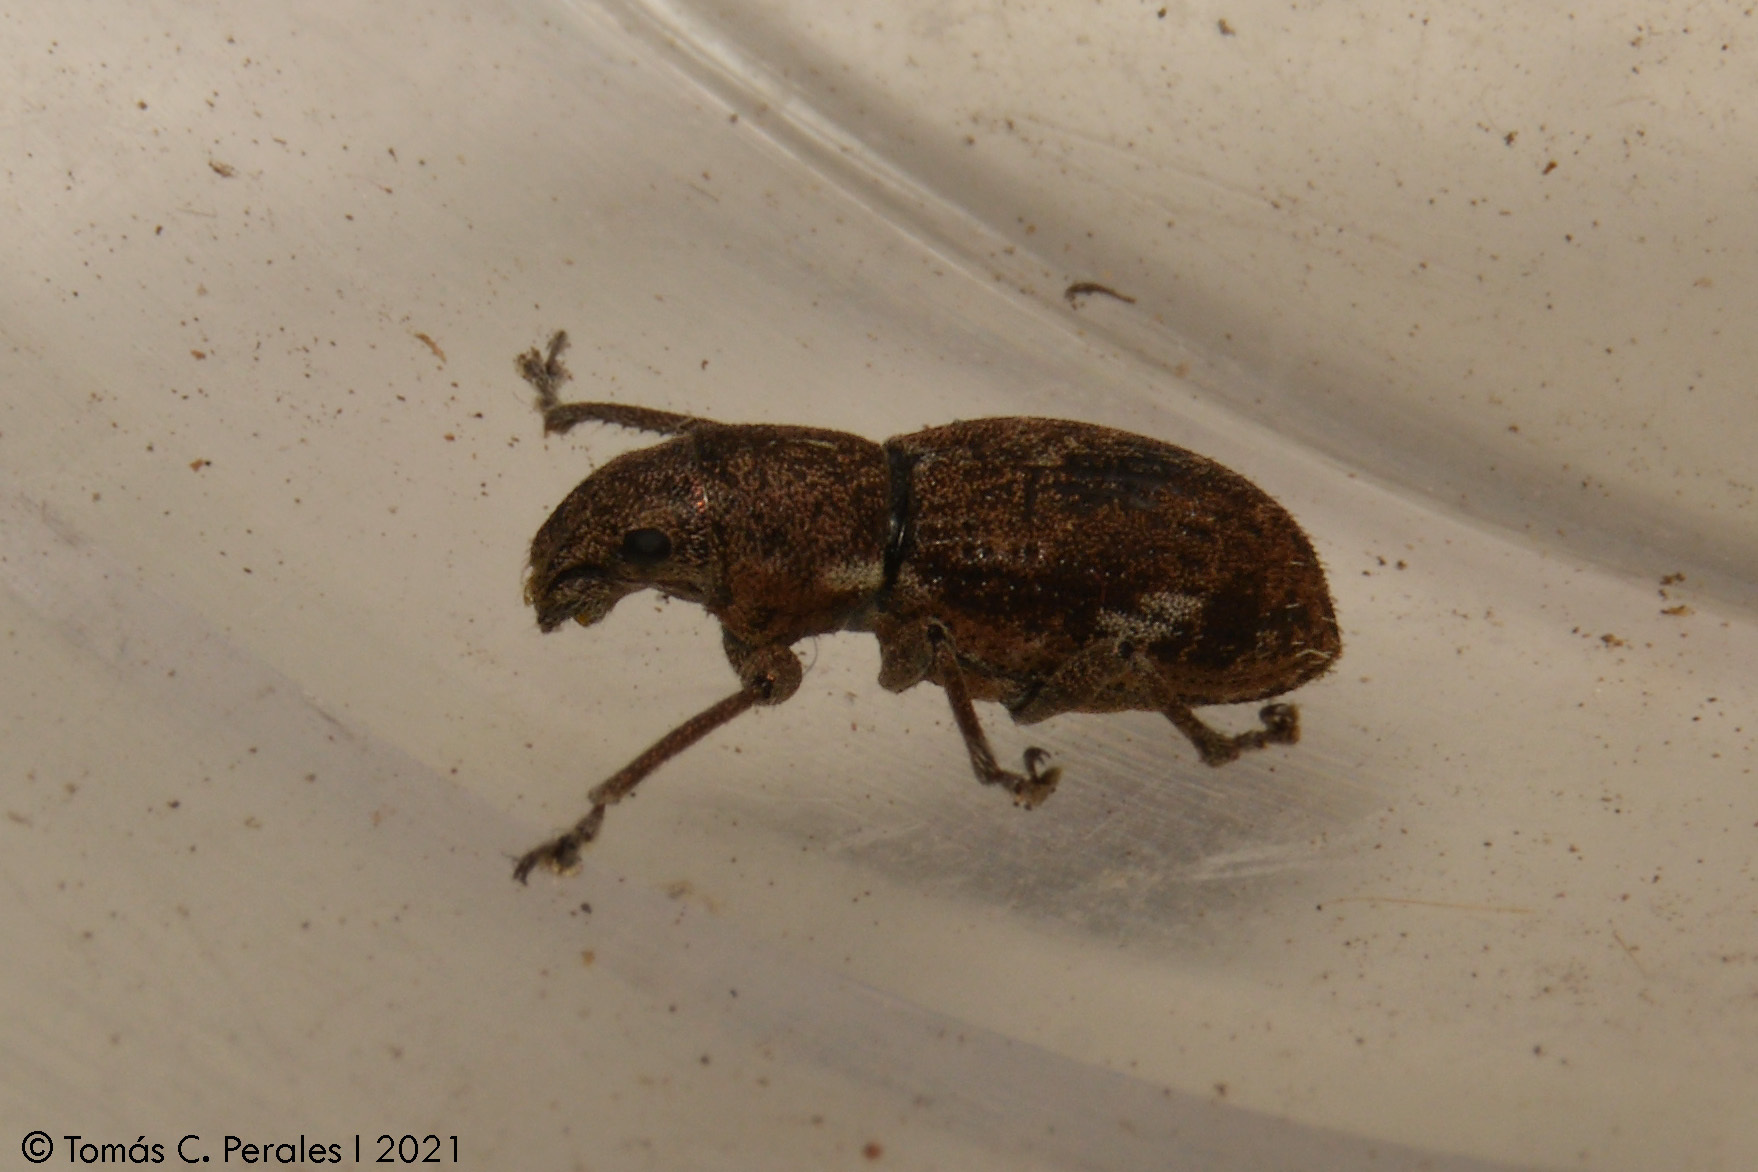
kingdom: Animalia
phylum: Arthropoda
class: Insecta
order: Coleoptera
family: Curculionidae
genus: Naupactus
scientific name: Naupactus cervinus
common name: Fuller rose beetle
